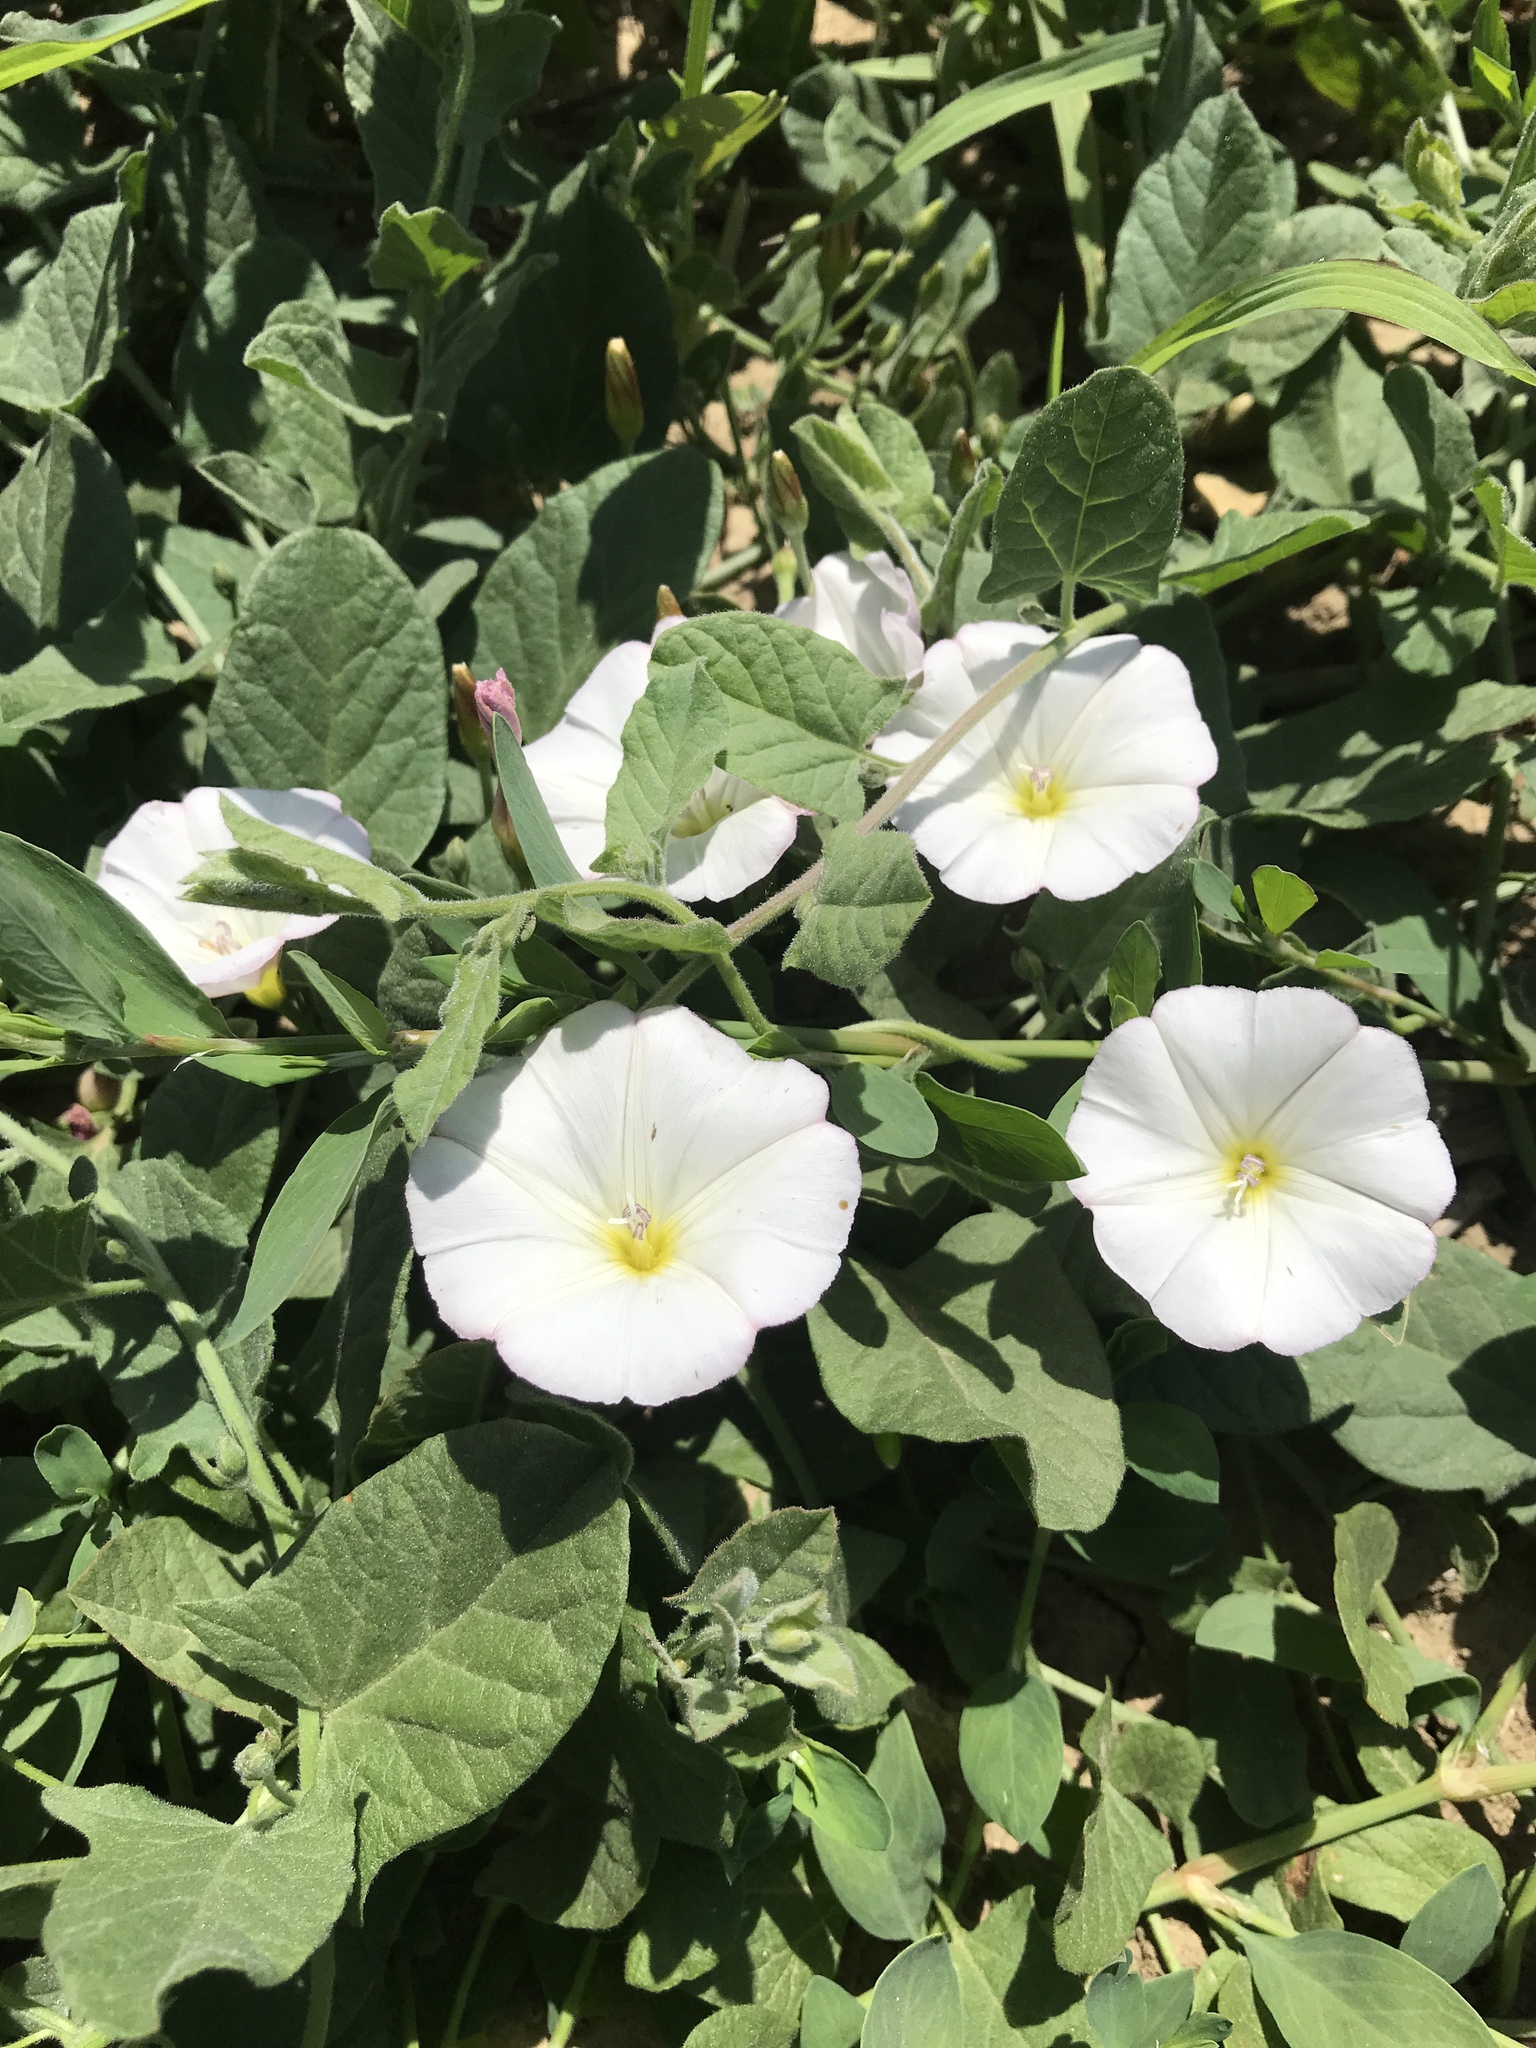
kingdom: Plantae
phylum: Tracheophyta
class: Magnoliopsida
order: Solanales
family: Convolvulaceae
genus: Convolvulus
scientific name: Convolvulus arvensis
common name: Field bindweed
